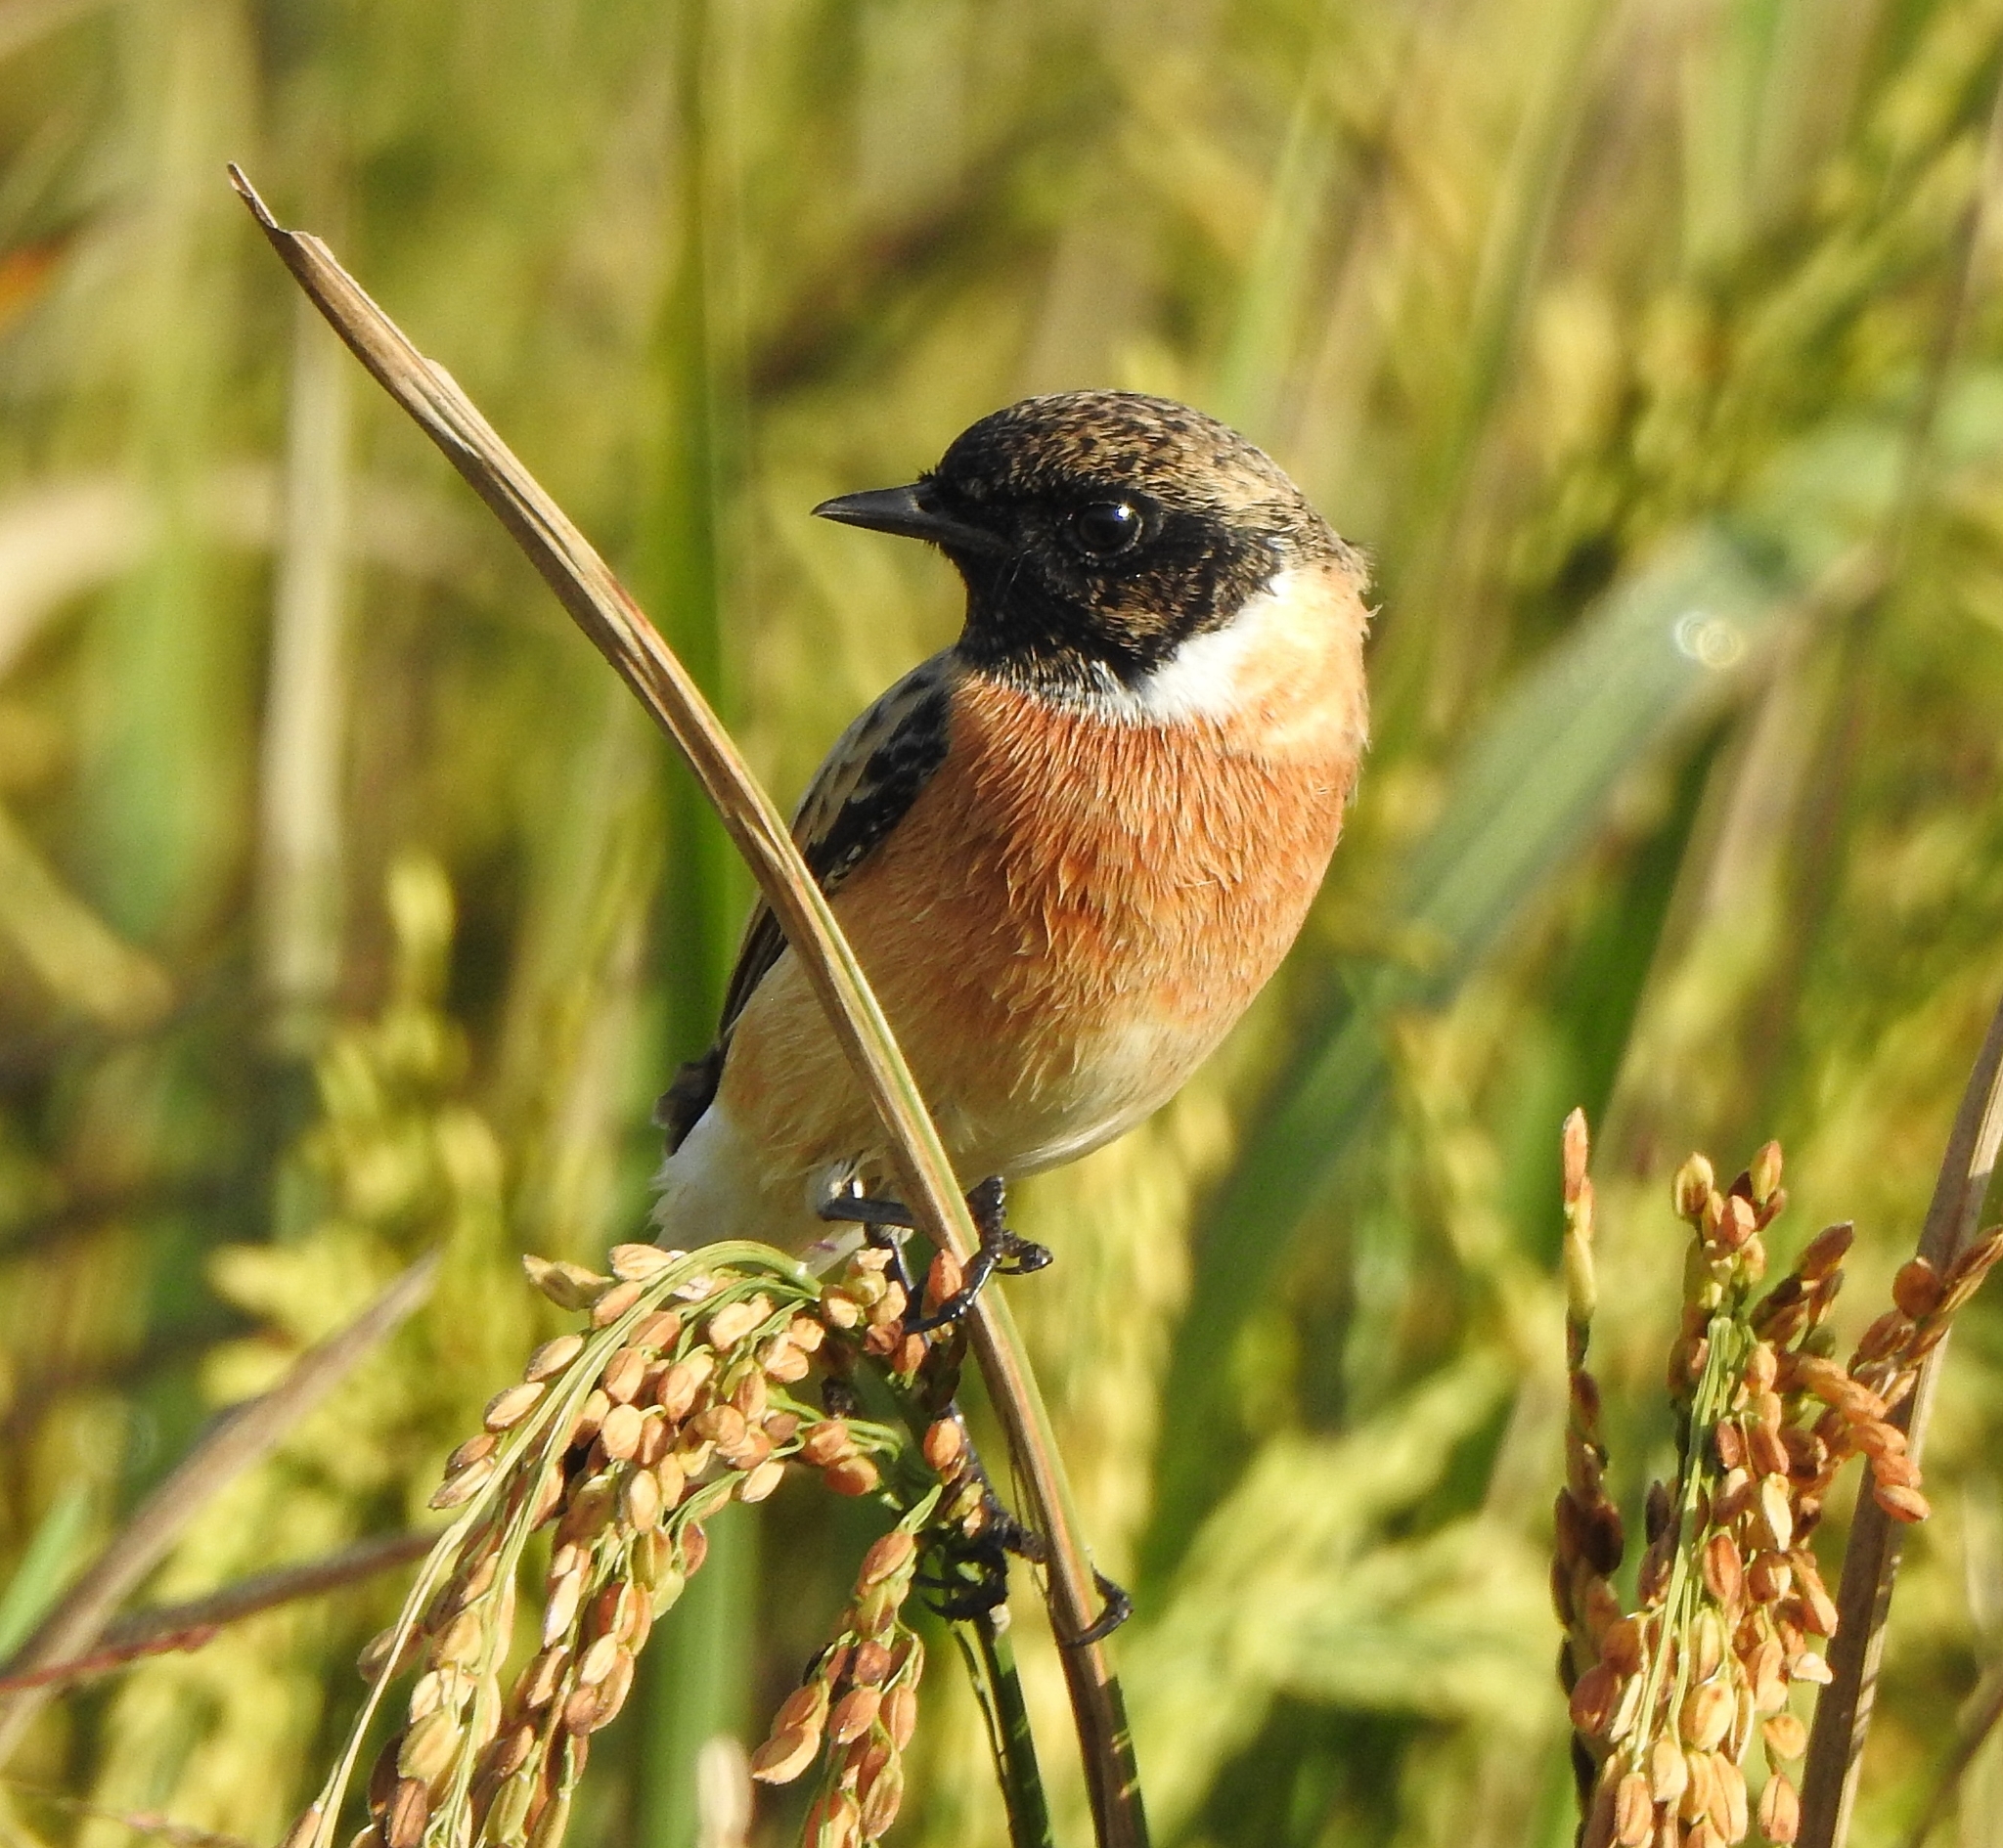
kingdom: Animalia
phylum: Chordata
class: Aves
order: Passeriformes
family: Muscicapidae
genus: Saxicola
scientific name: Saxicola maurus
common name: Siberian stonechat
